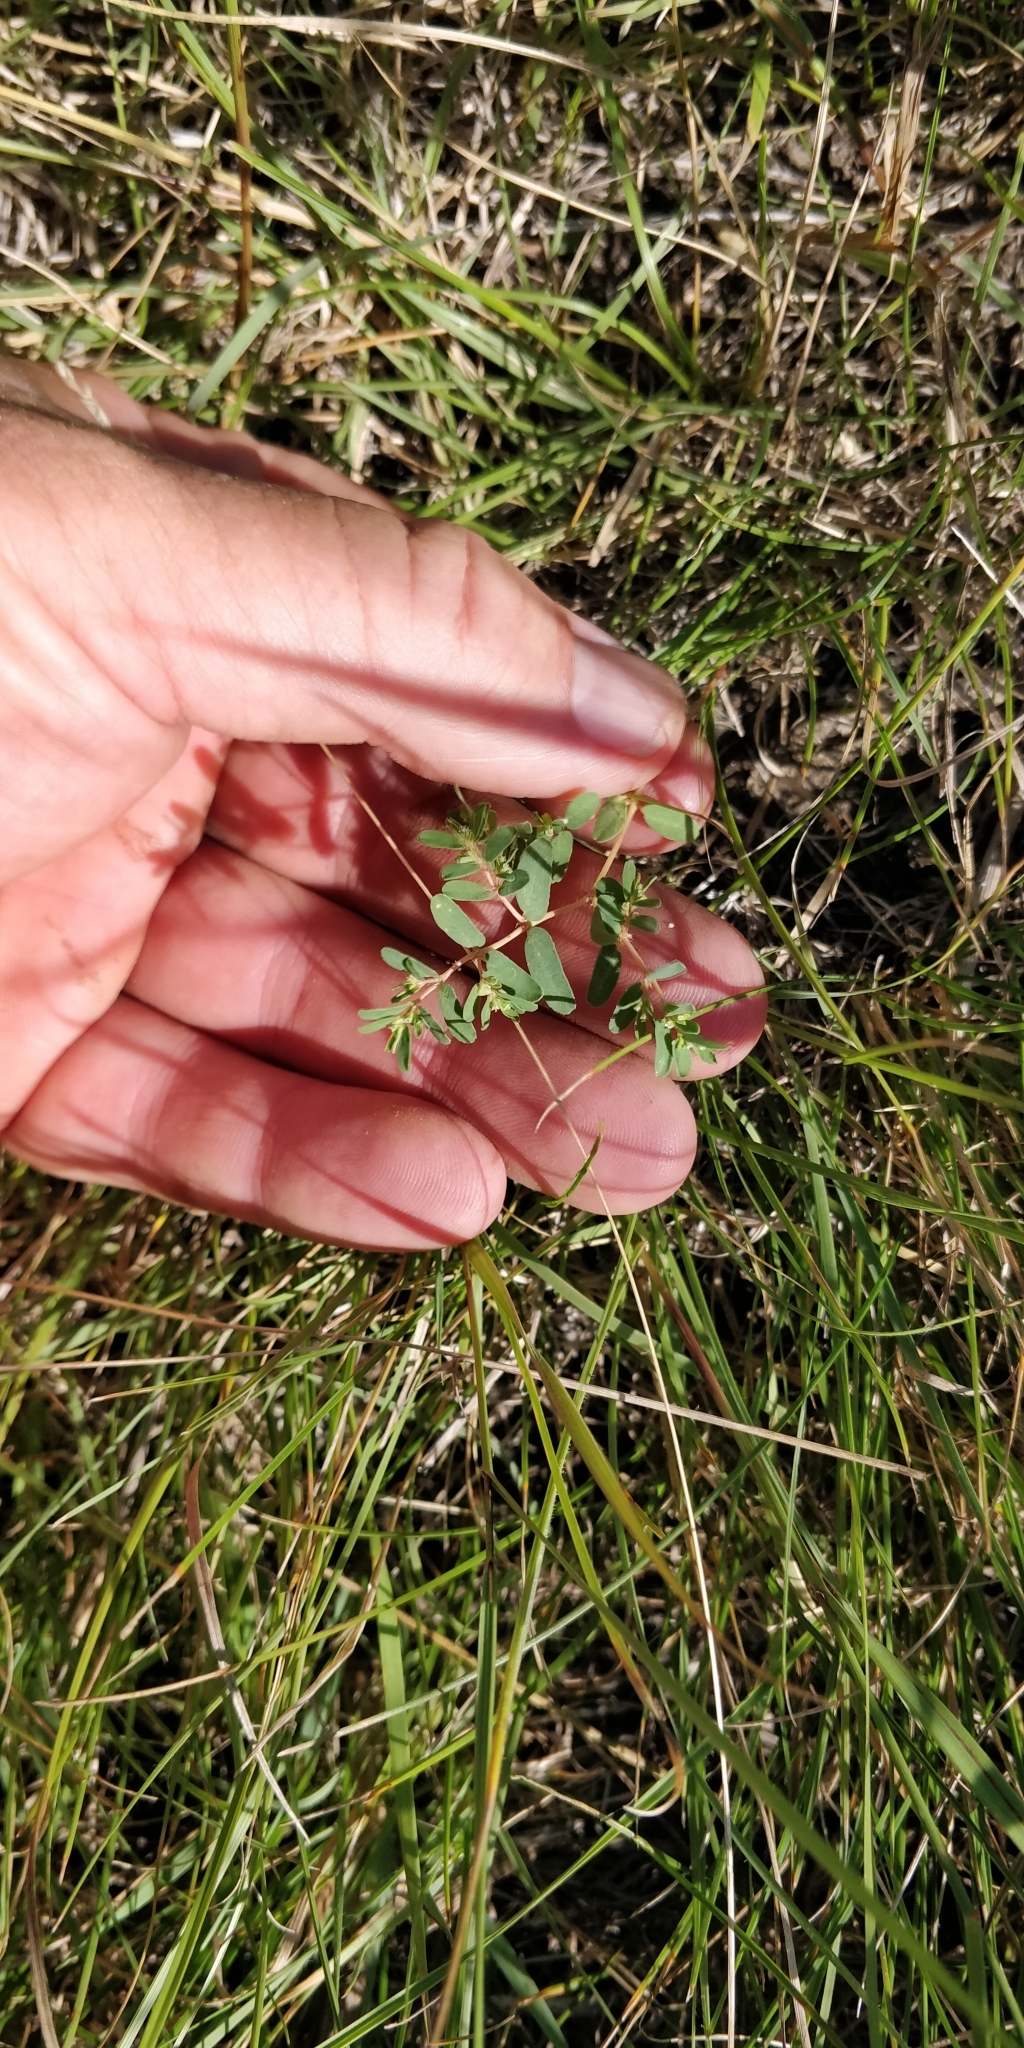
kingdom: Plantae
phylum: Tracheophyta
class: Magnoliopsida
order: Malpighiales
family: Euphorbiaceae
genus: Euphorbia
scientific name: Euphorbia glyptosperma
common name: Corrugate-seeded spurge
